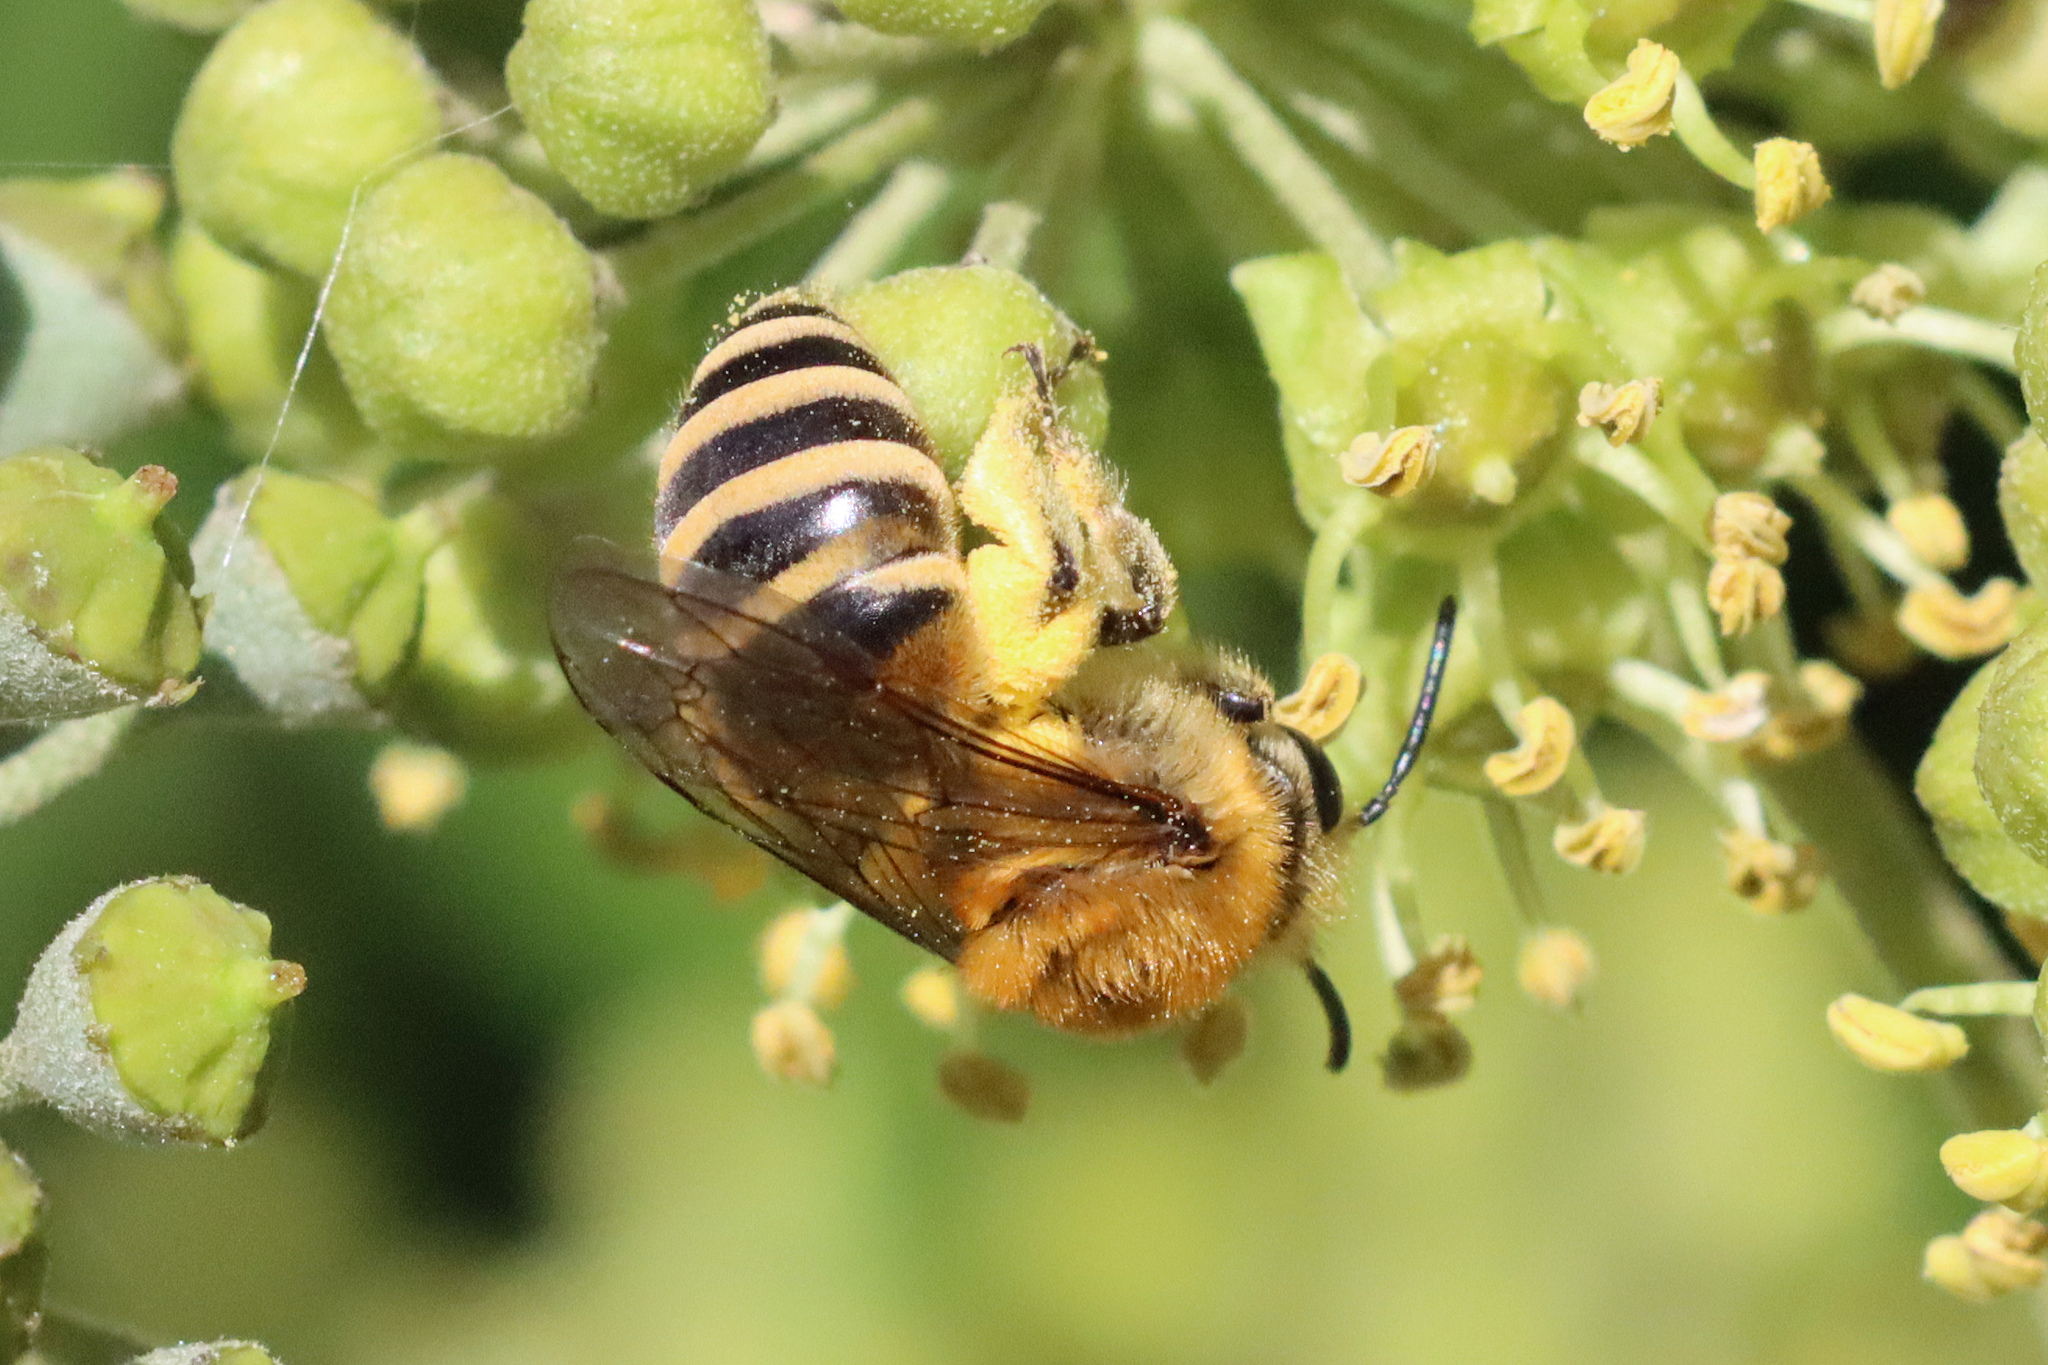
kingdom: Animalia
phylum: Arthropoda
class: Insecta
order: Hymenoptera
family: Colletidae
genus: Colletes
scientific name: Colletes hederae
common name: Ivy bee
